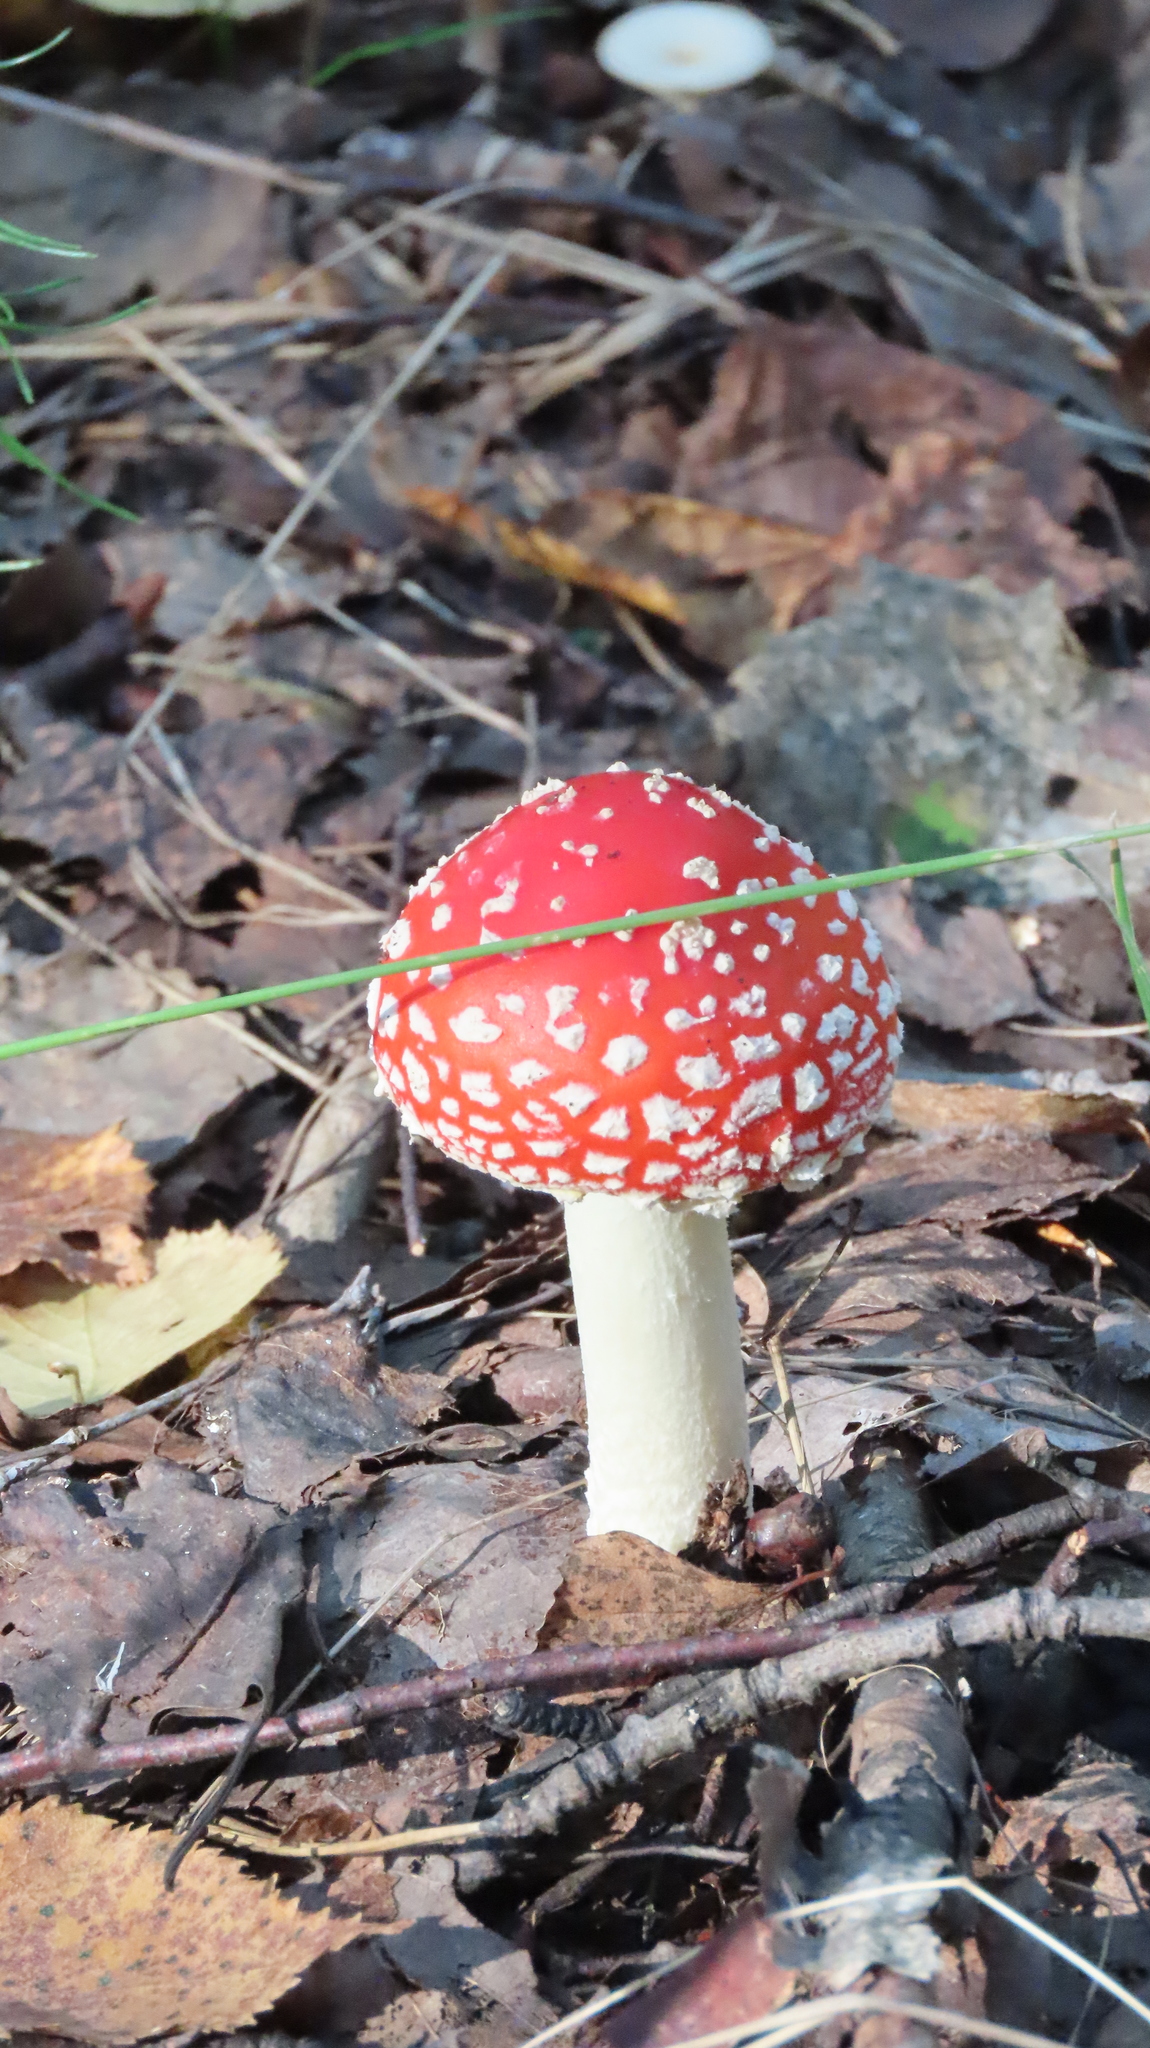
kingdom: Fungi
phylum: Basidiomycota
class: Agaricomycetes
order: Agaricales
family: Amanitaceae
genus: Amanita
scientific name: Amanita muscaria
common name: Fly agaric
